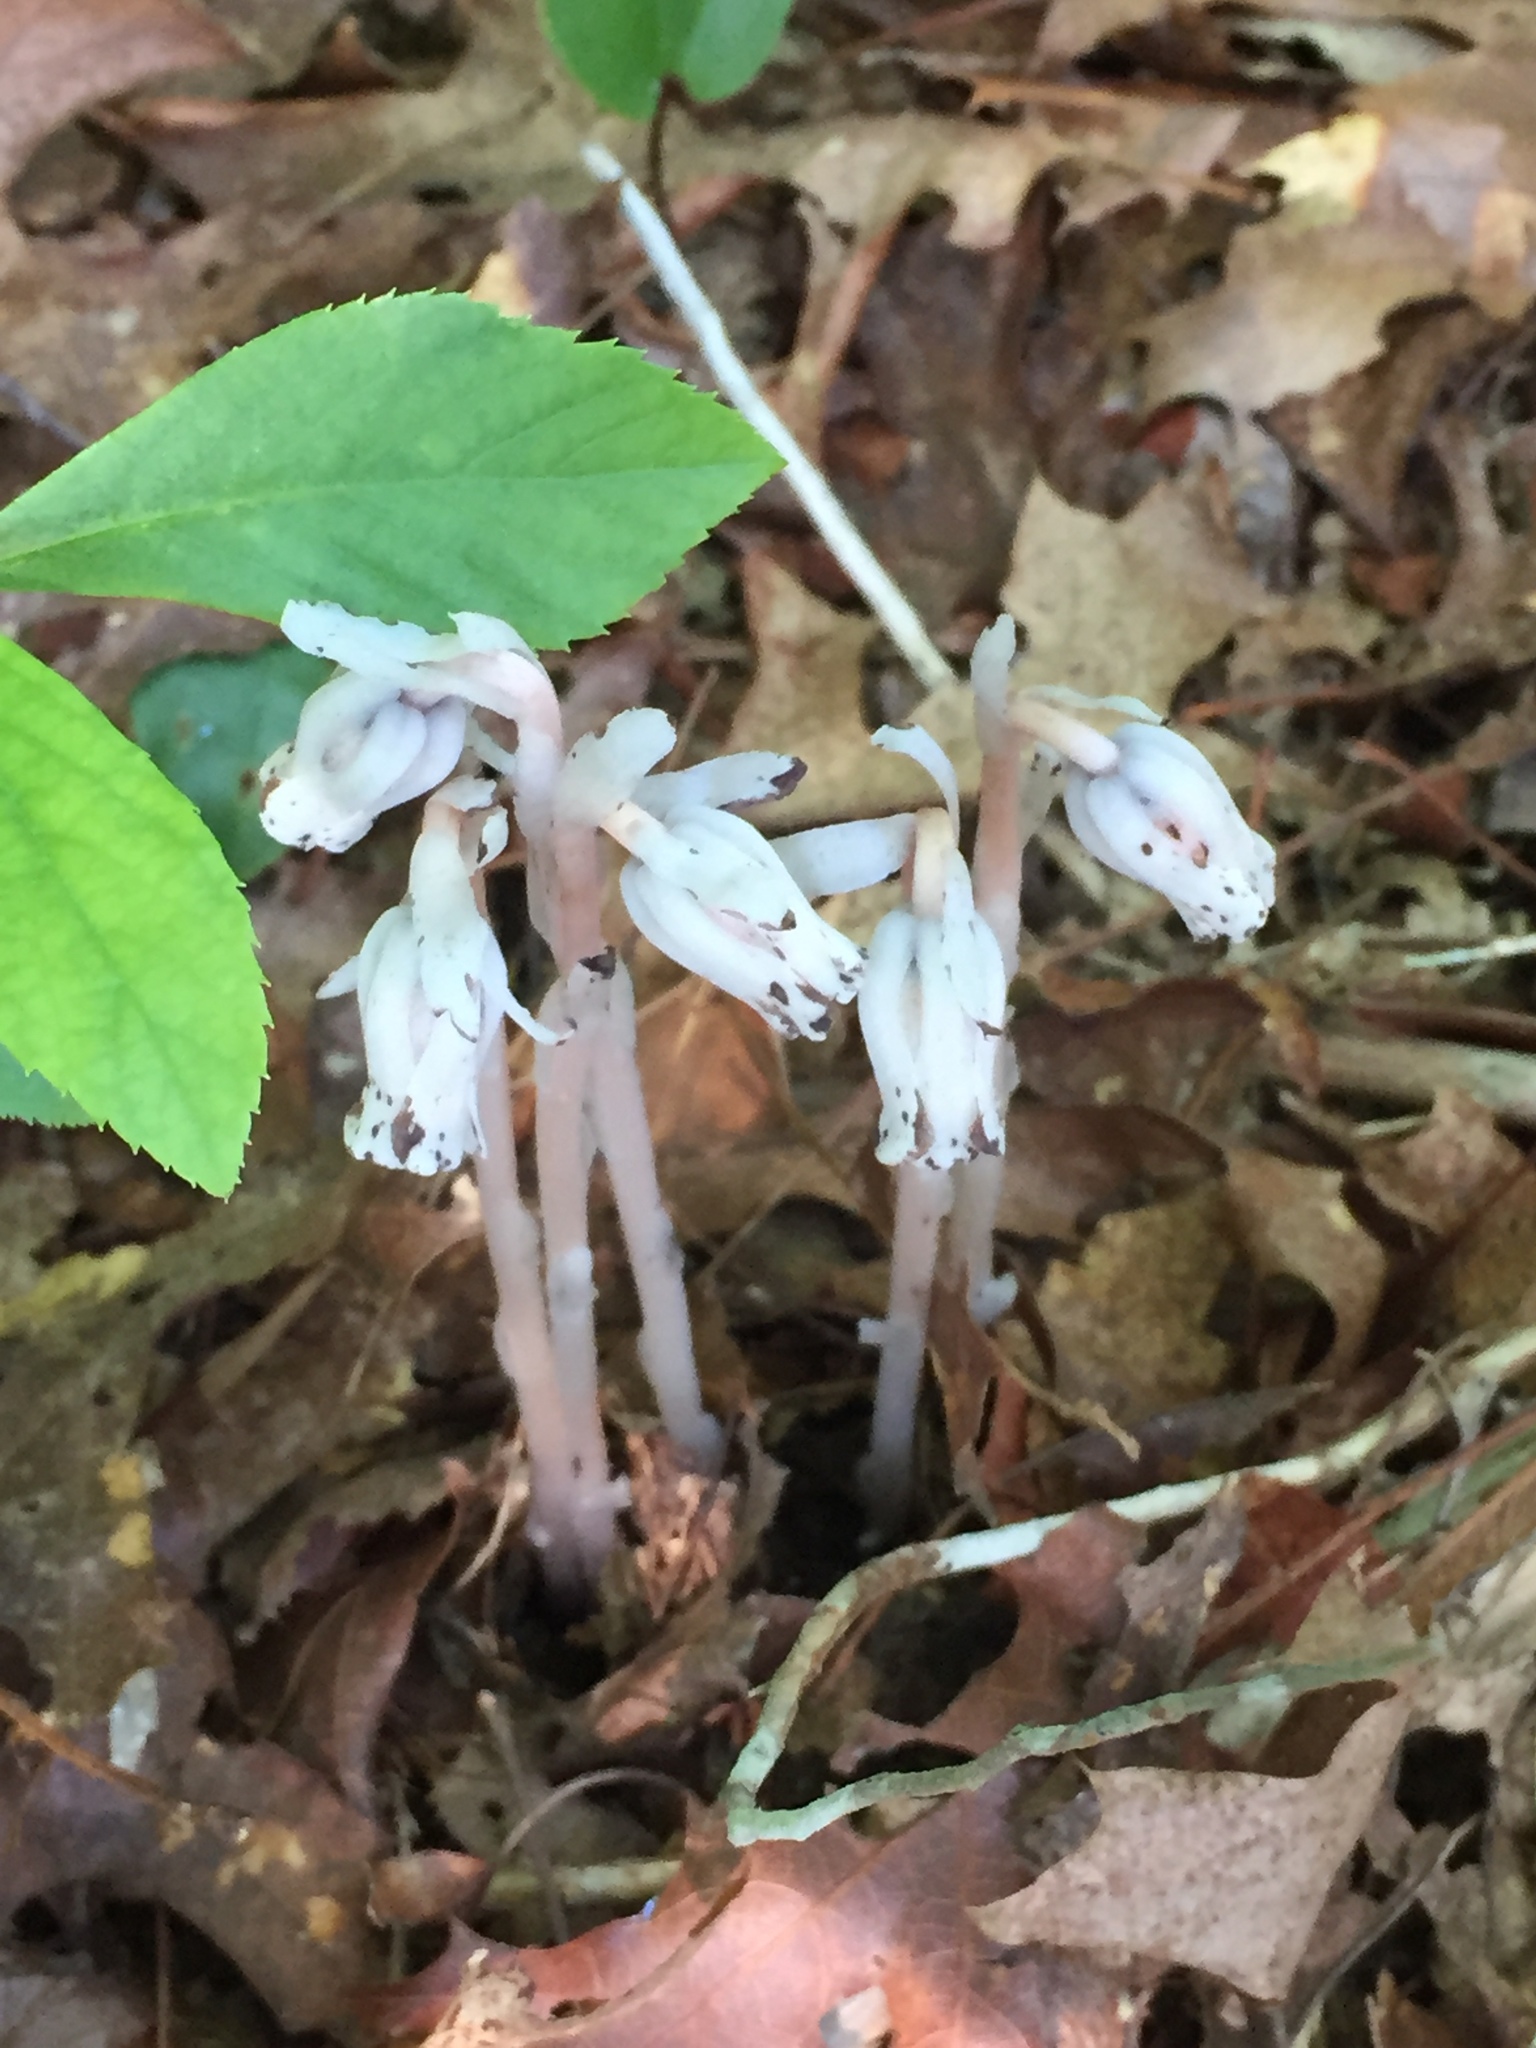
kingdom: Plantae
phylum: Tracheophyta
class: Magnoliopsida
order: Ericales
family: Ericaceae
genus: Monotropa
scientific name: Monotropa uniflora
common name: Convulsion root
